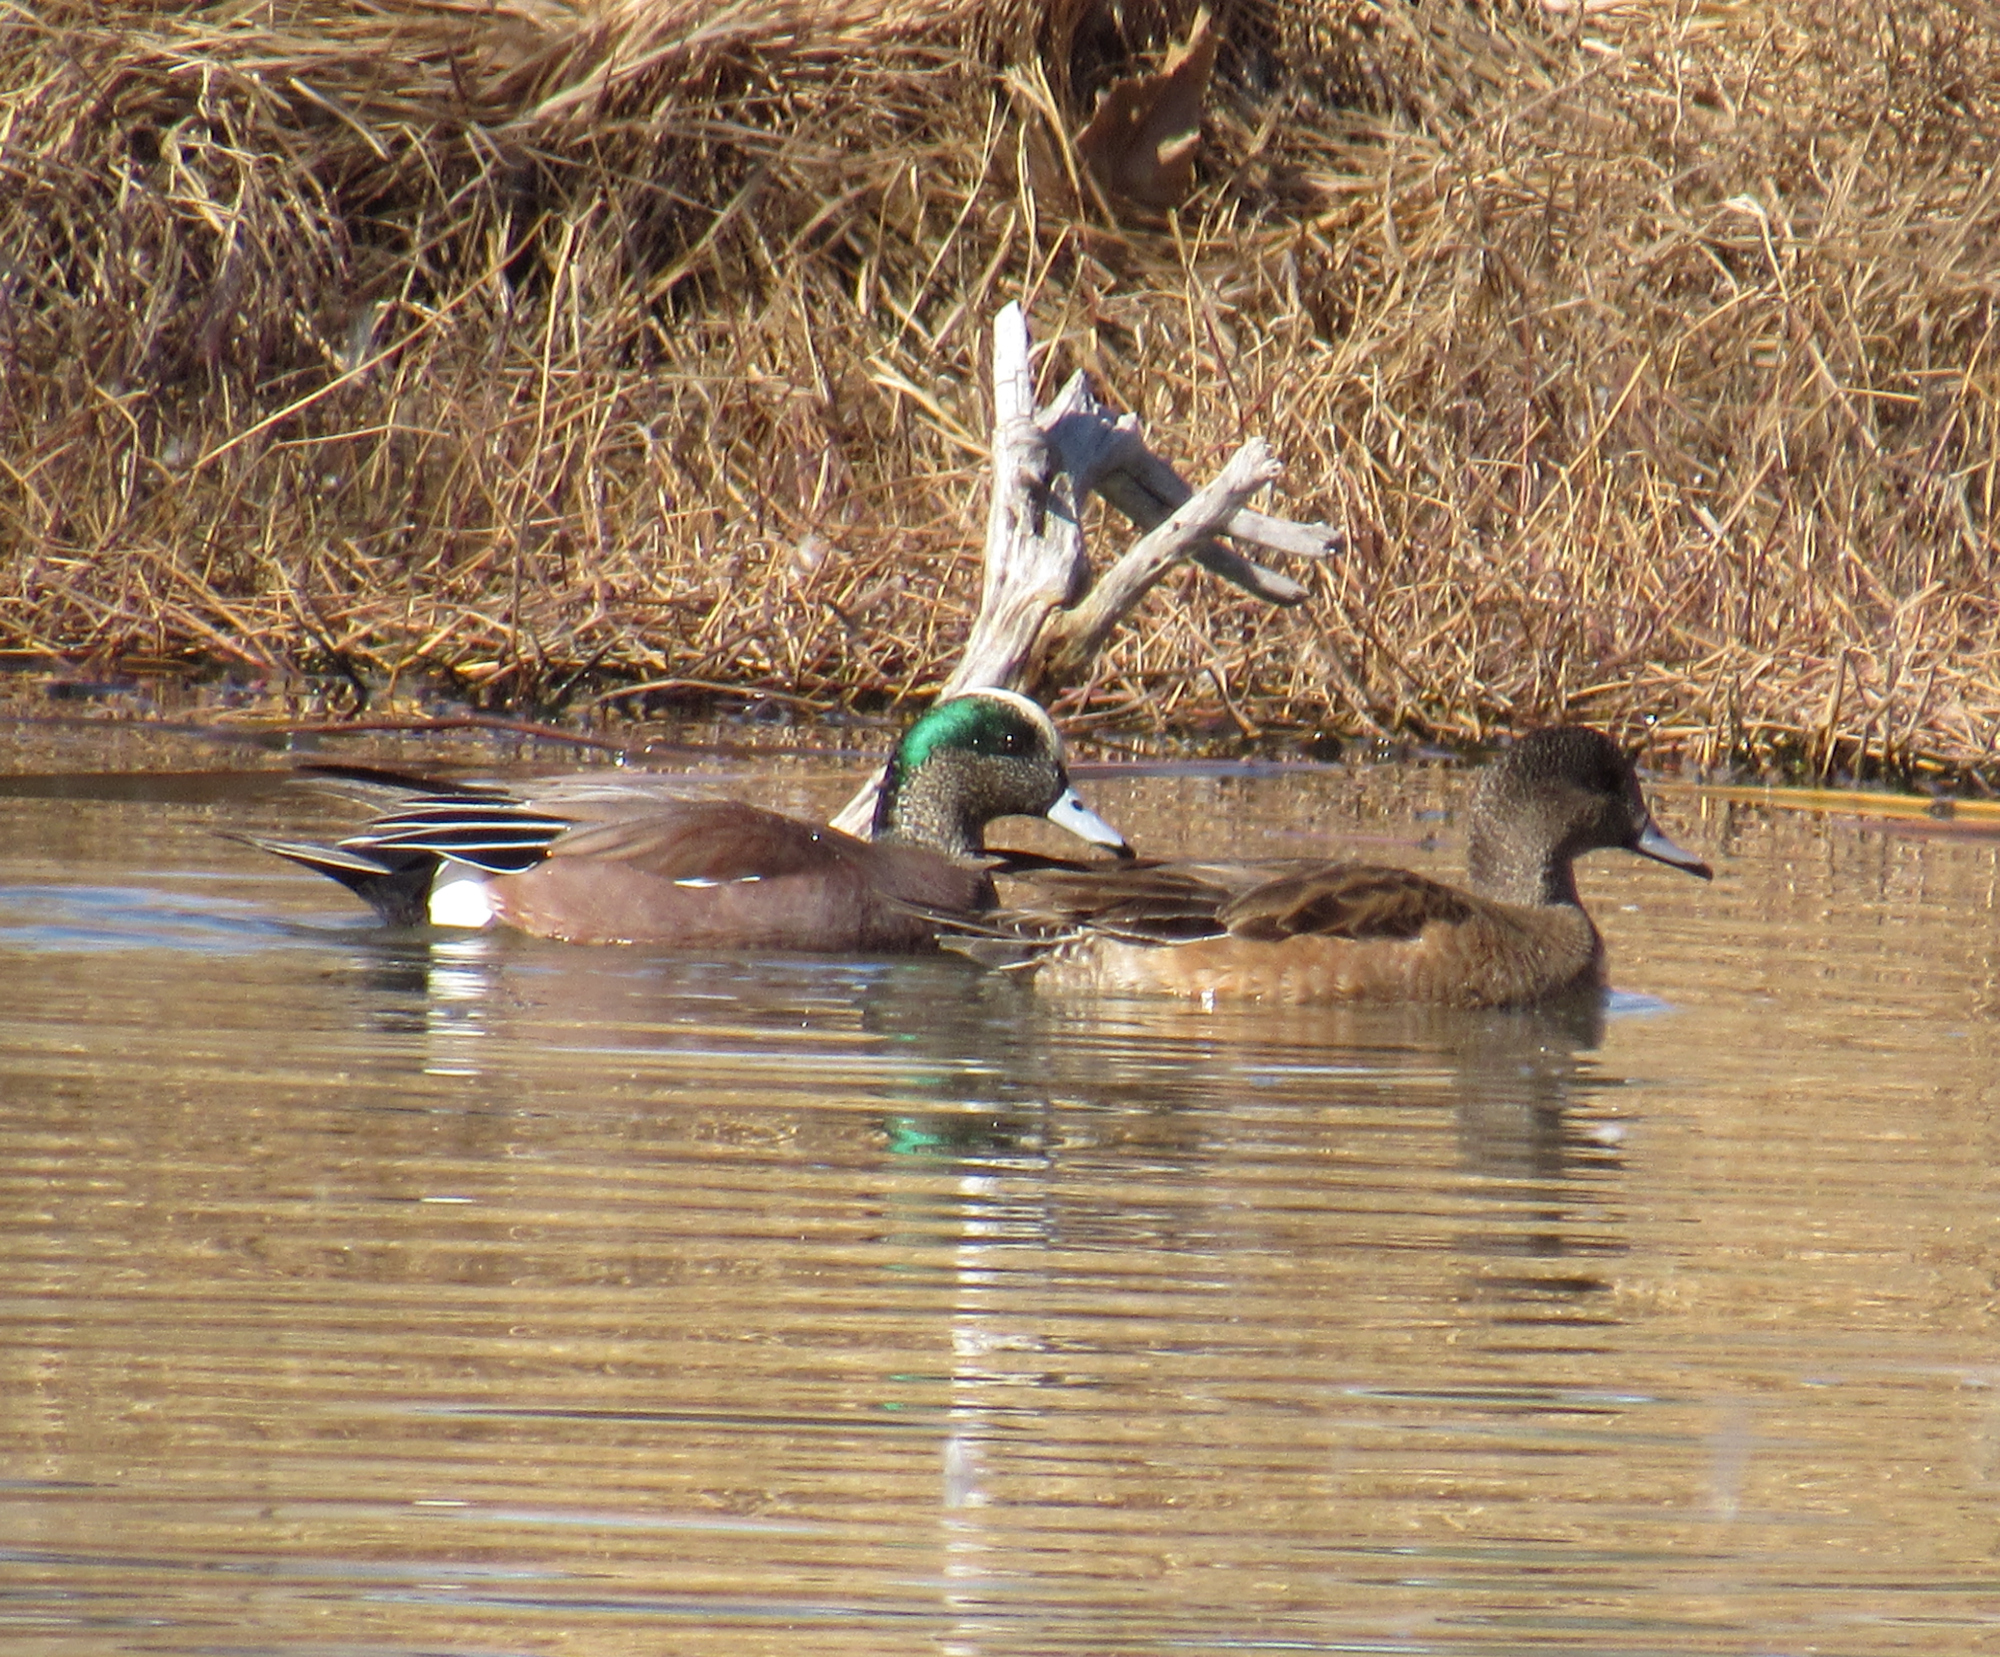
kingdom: Animalia
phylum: Chordata
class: Aves
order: Anseriformes
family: Anatidae
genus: Mareca
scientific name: Mareca americana
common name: American wigeon
